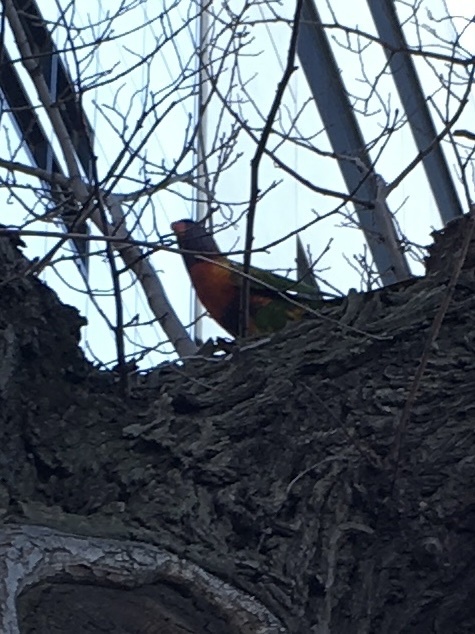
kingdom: Animalia
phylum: Chordata
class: Aves
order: Psittaciformes
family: Psittacidae
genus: Trichoglossus
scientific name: Trichoglossus haematodus
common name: Coconut lorikeet
